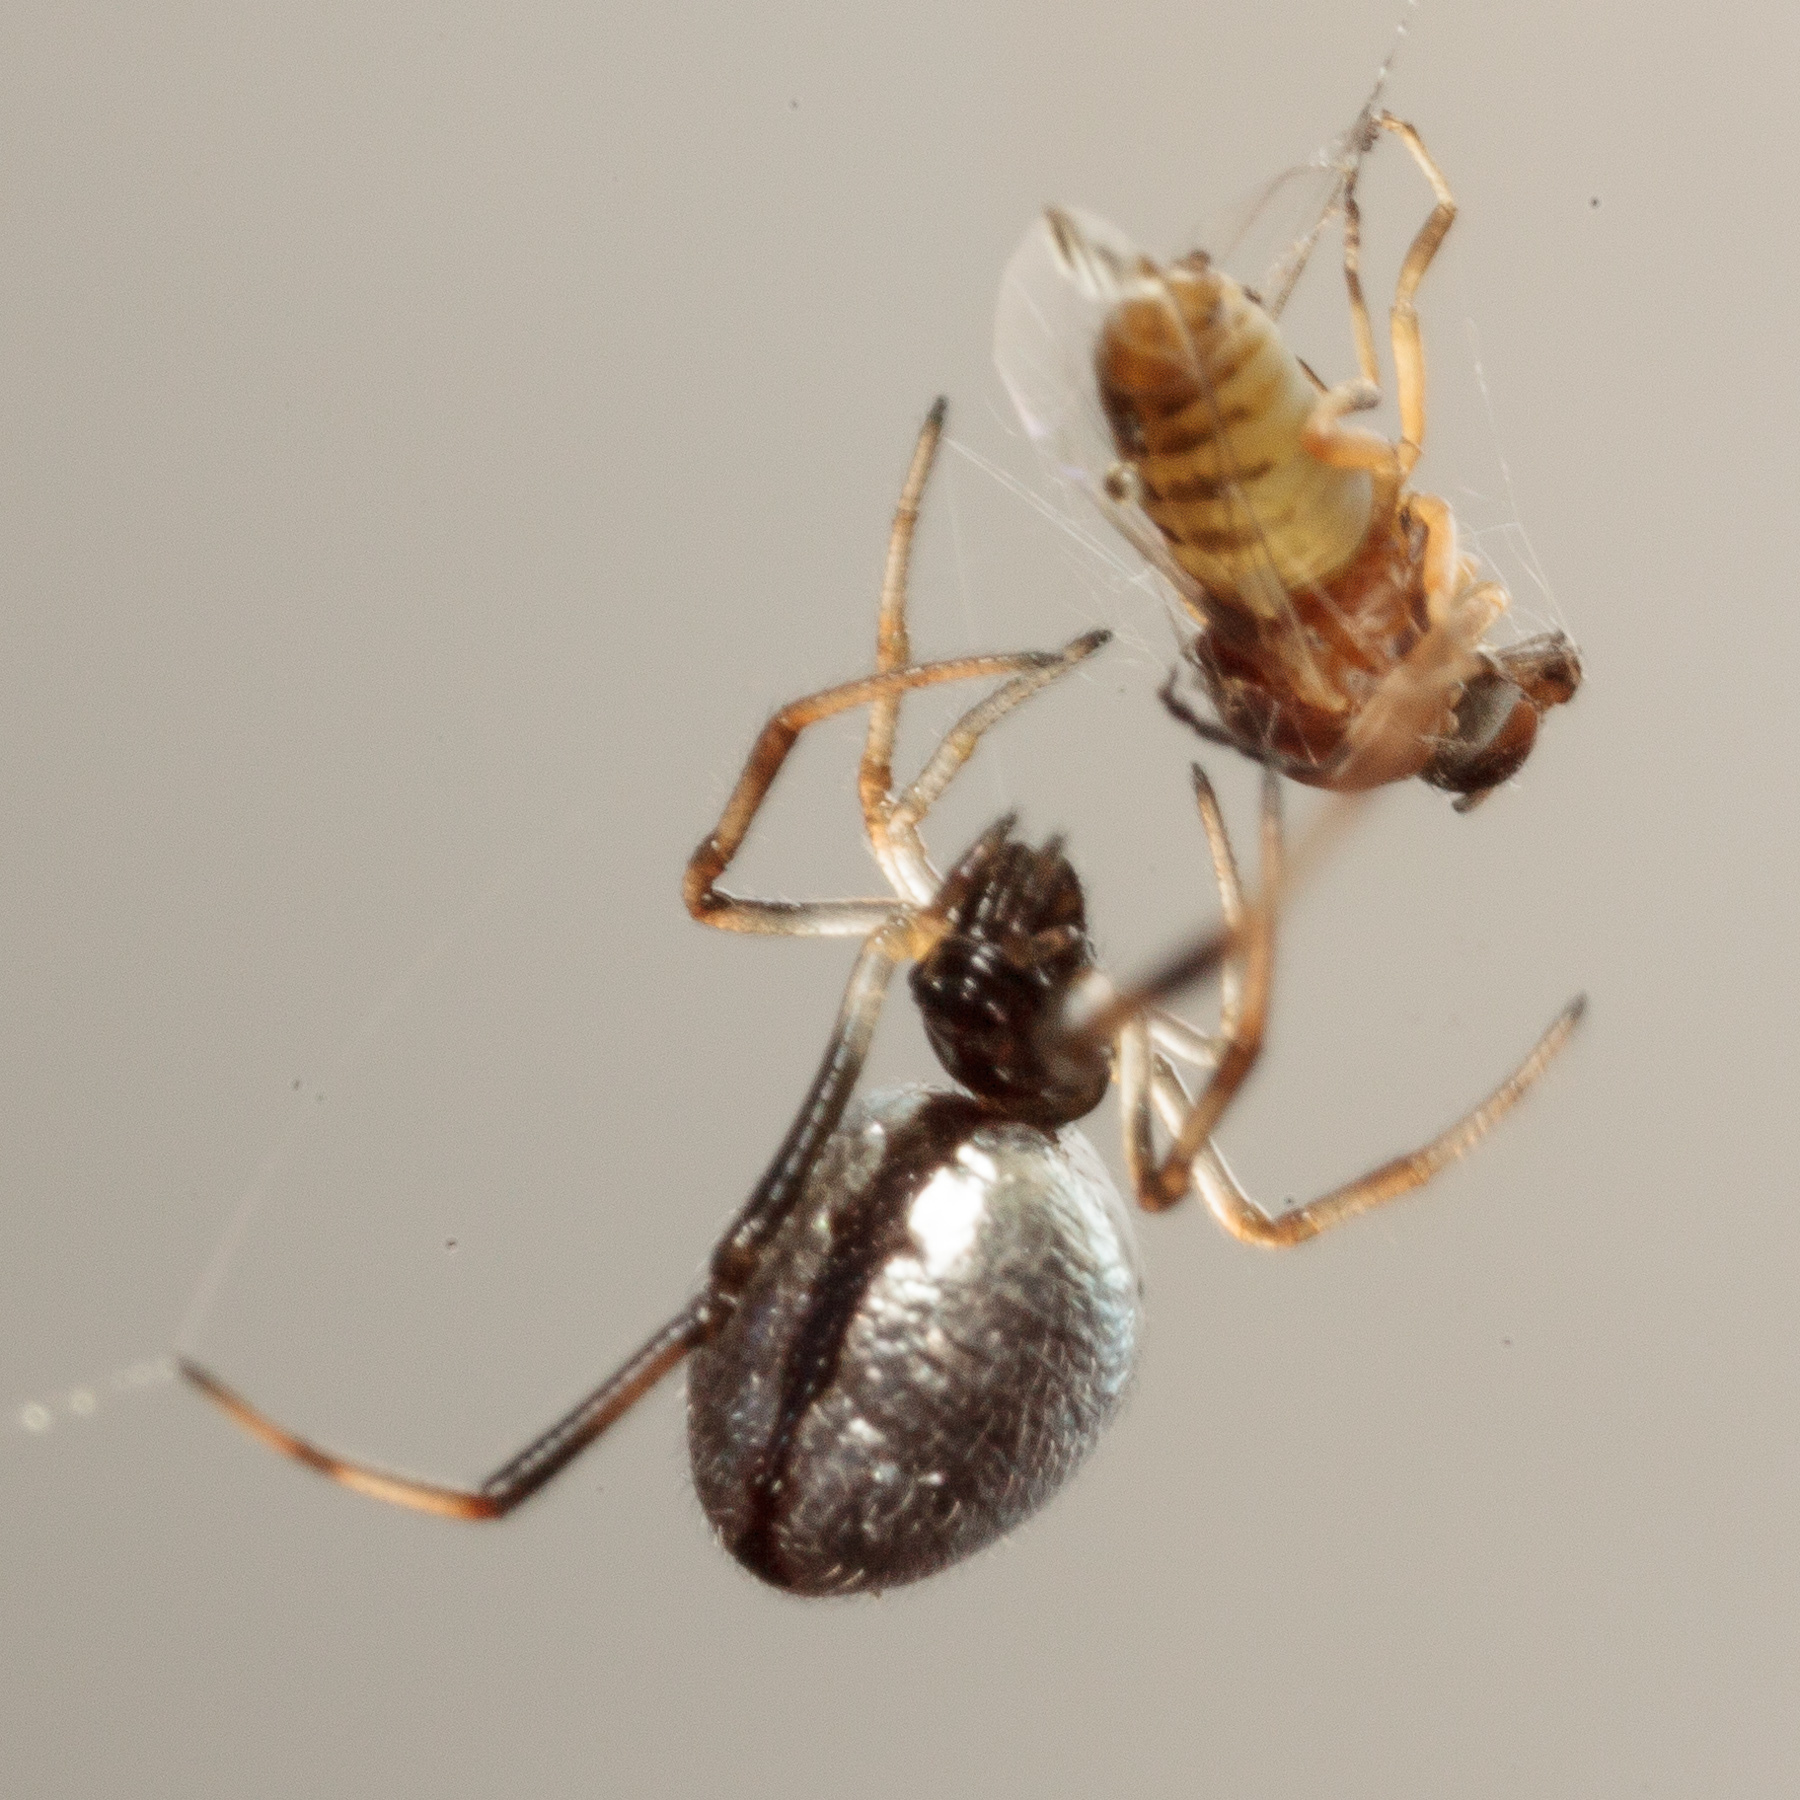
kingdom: Animalia
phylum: Arthropoda
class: Arachnida
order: Araneae
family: Theridiidae
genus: Argyrodes
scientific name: Argyrodes elevatus
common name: Cobweb spiders
